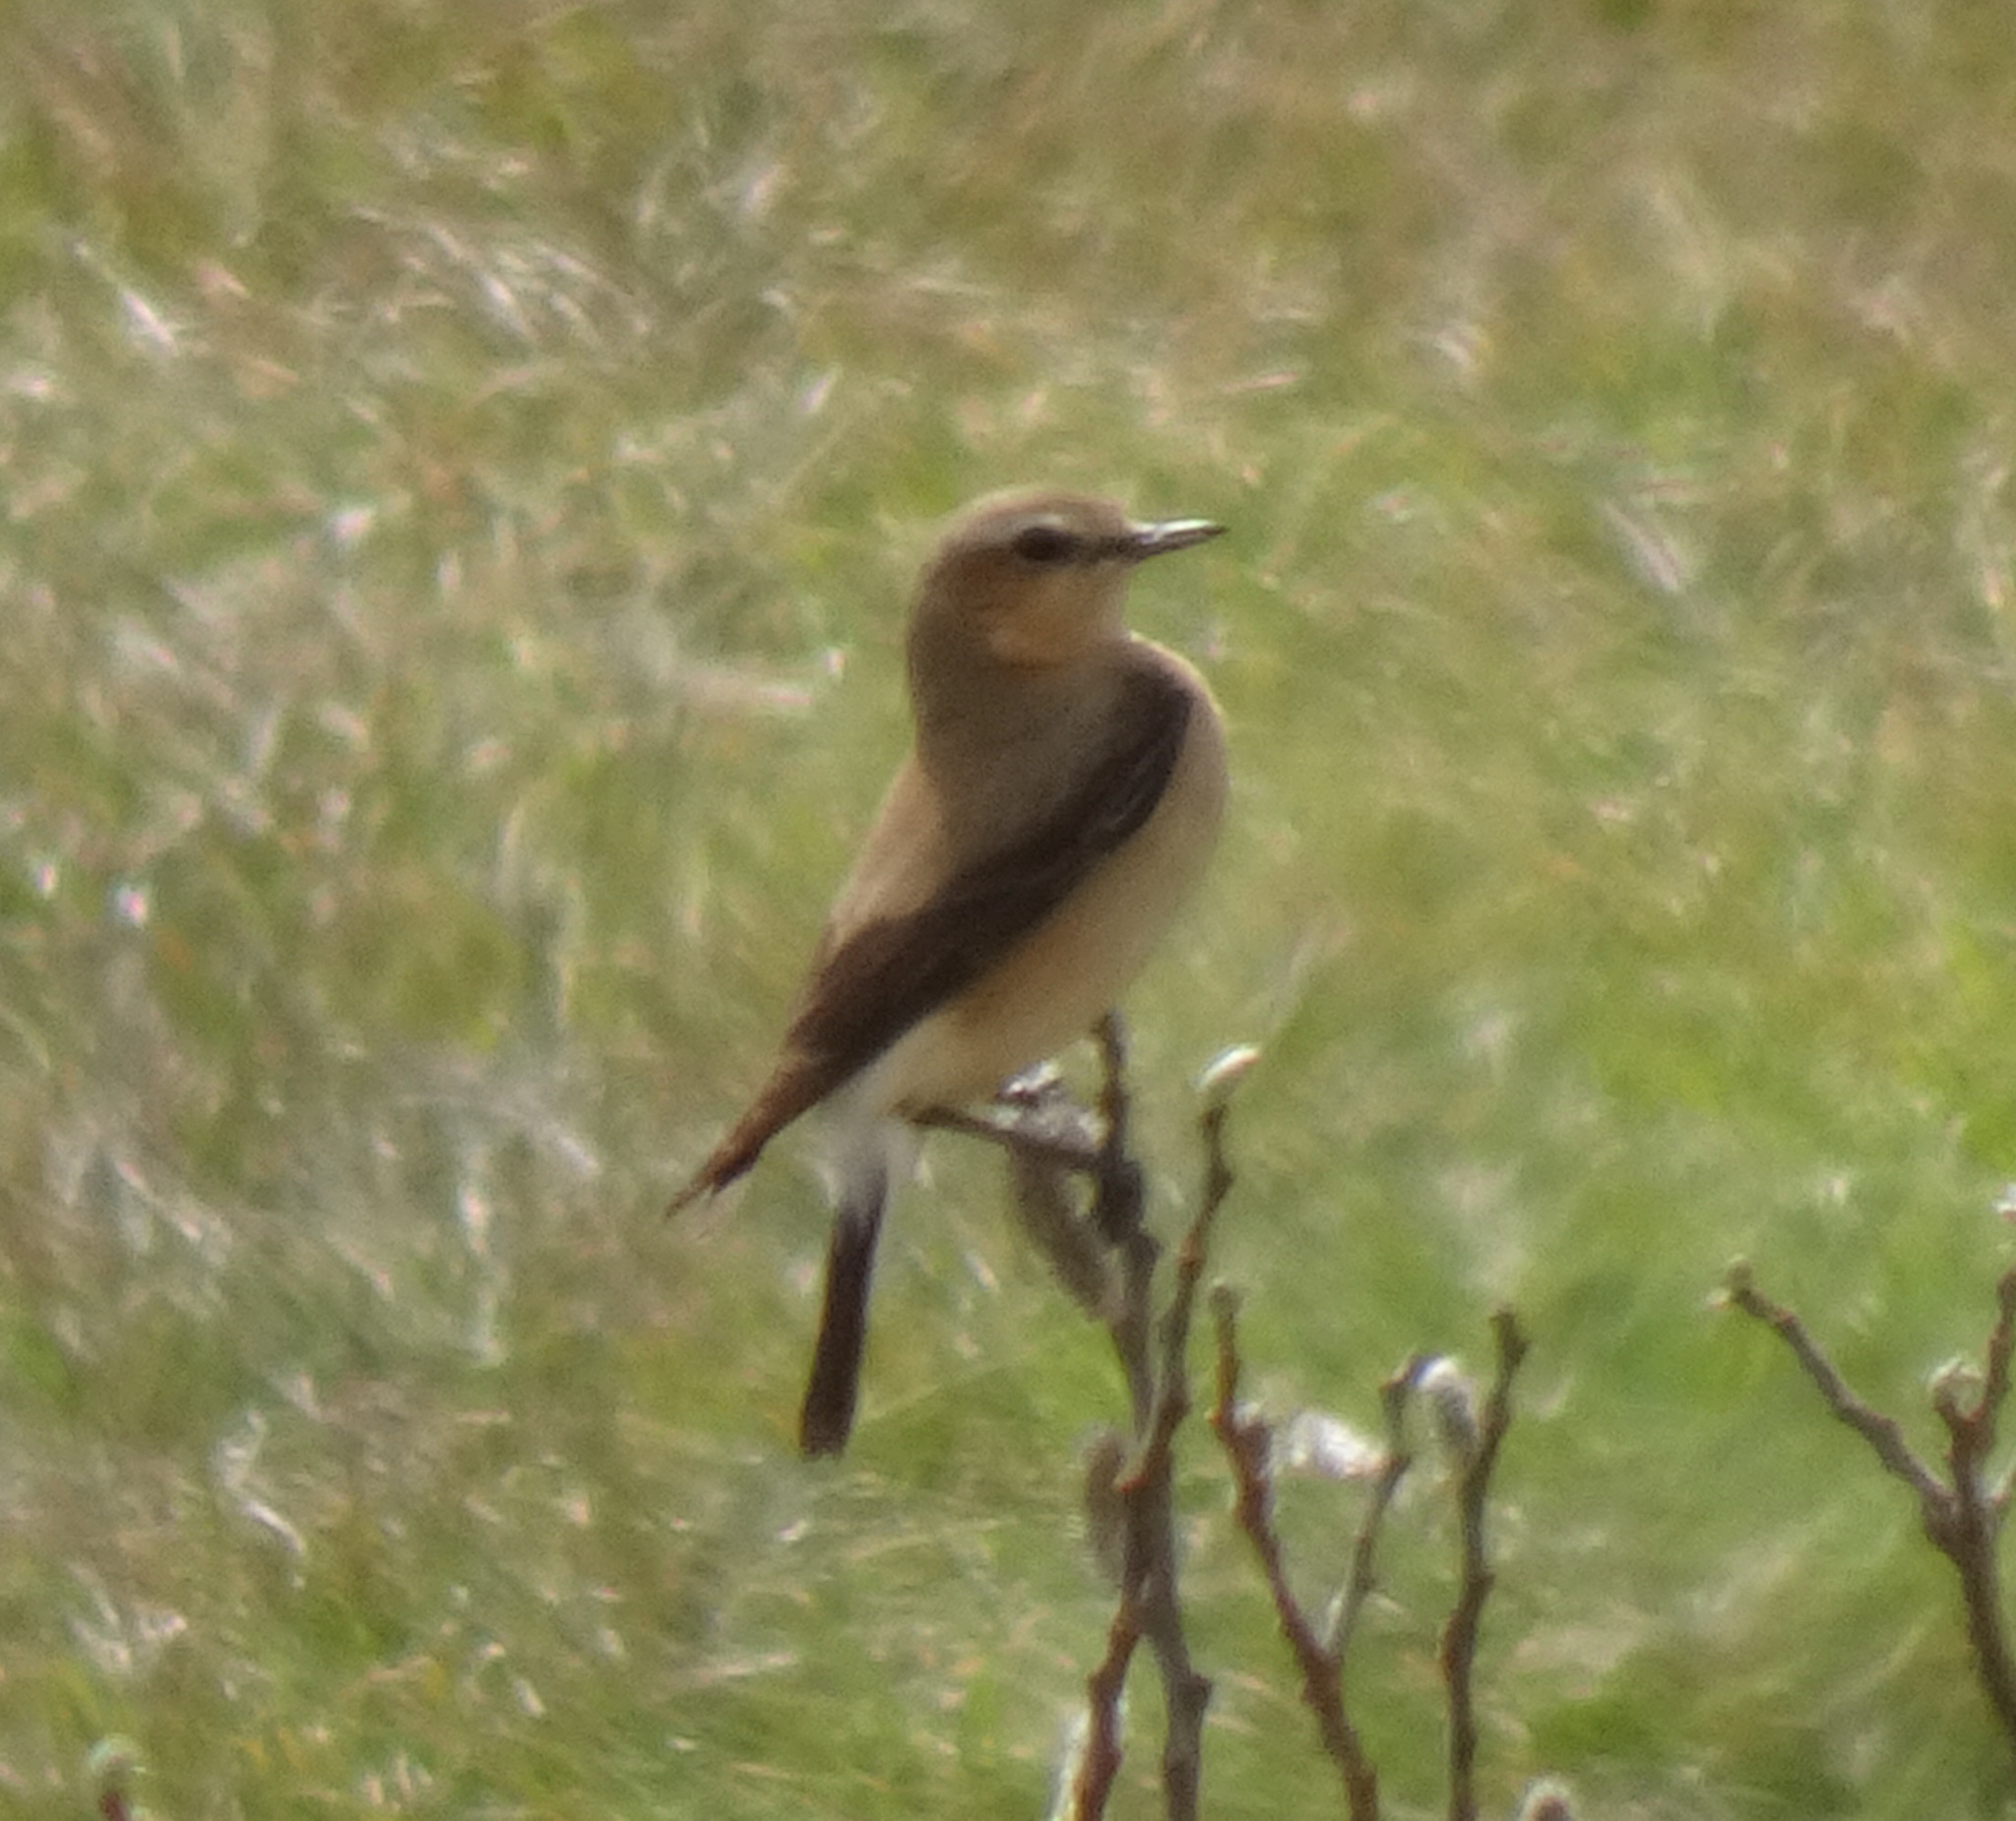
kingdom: Animalia
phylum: Chordata
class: Aves
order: Passeriformes
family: Muscicapidae
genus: Oenanthe
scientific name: Oenanthe oenanthe
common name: Northern wheatear
